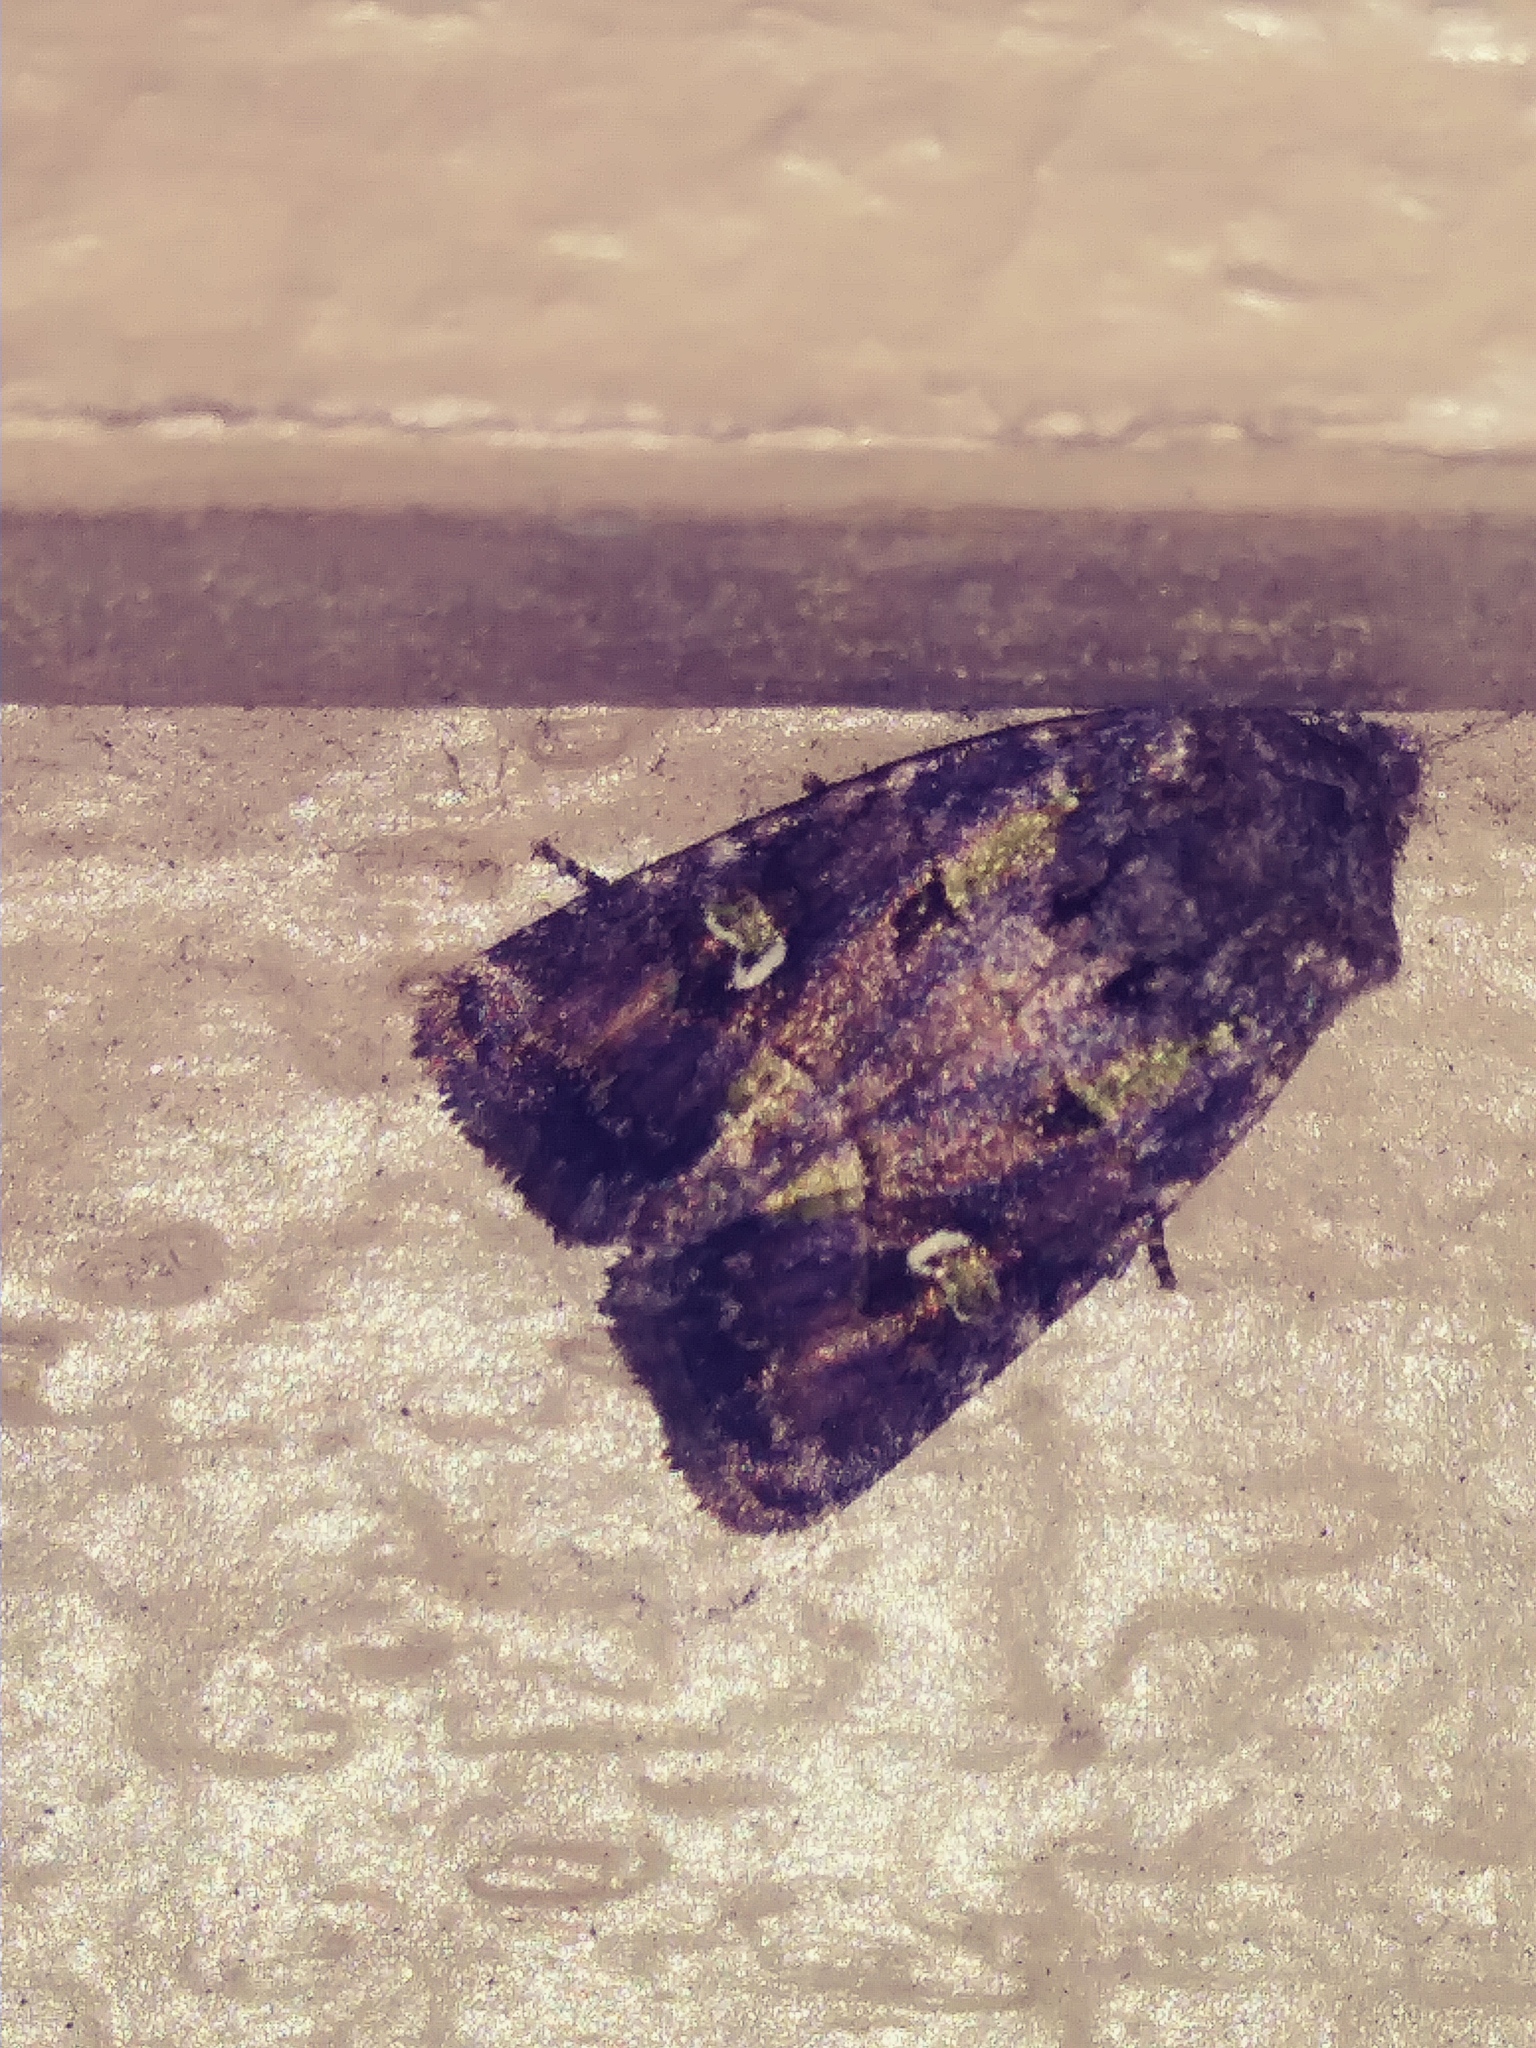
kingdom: Animalia
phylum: Arthropoda
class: Insecta
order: Lepidoptera
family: Noctuidae
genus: Lacinipolia
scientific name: Lacinipolia renigera
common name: Kidney-spotted minor
